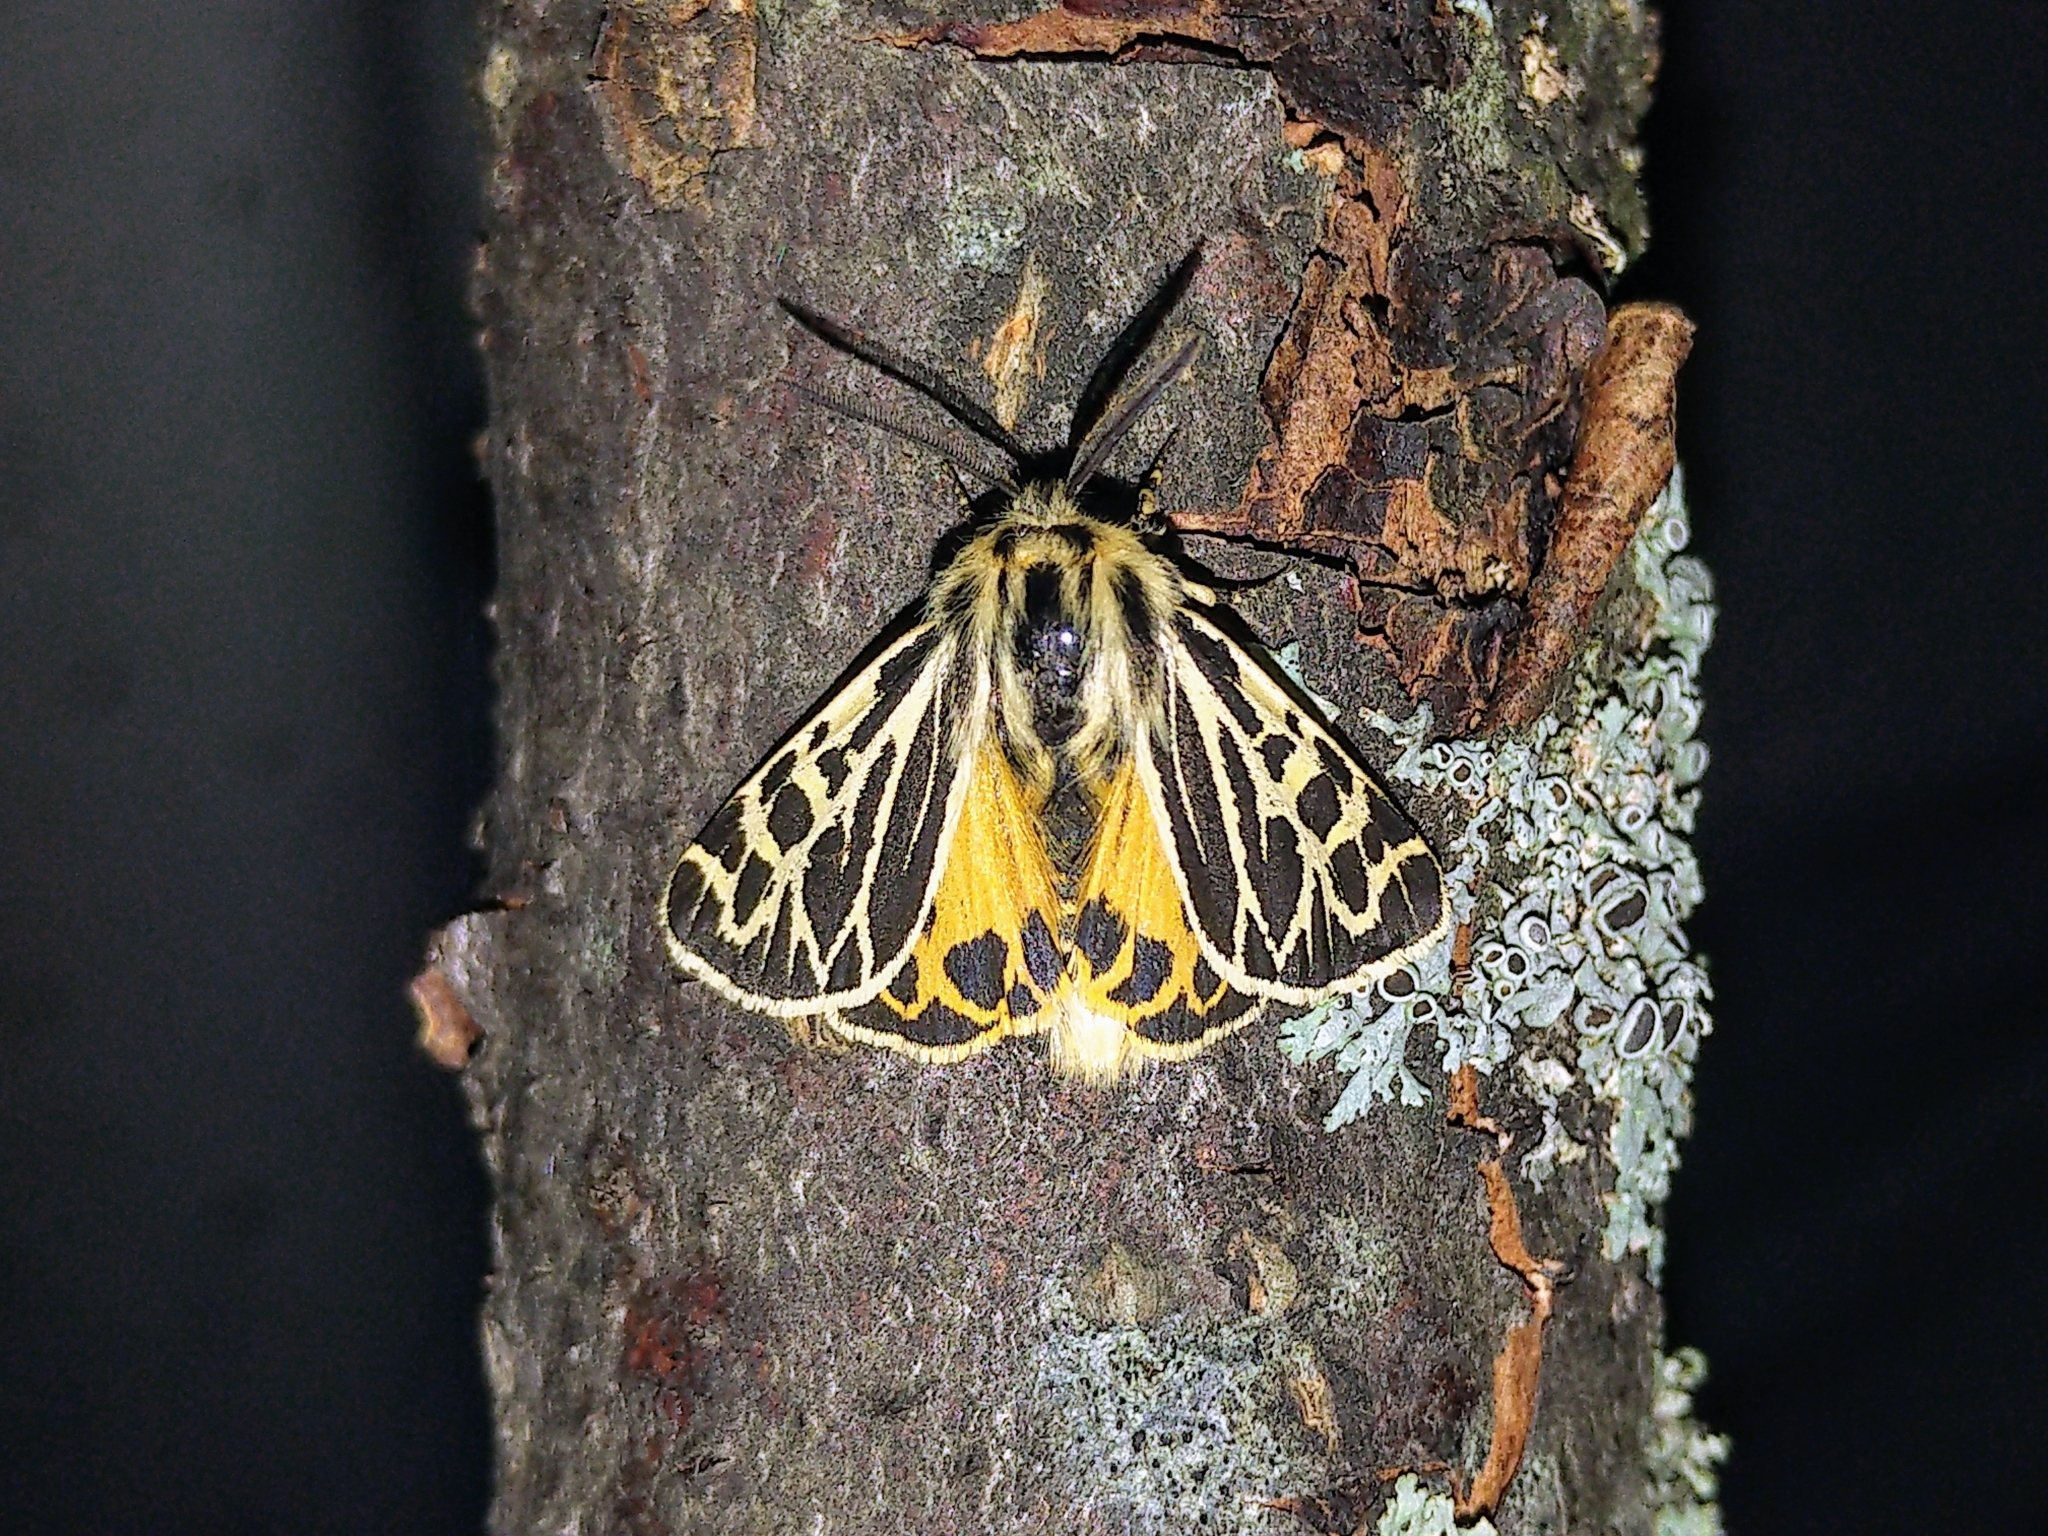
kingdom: Animalia
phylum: Arthropoda
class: Insecta
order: Lepidoptera
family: Erebidae
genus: Apantesis
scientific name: Apantesis obliterata
